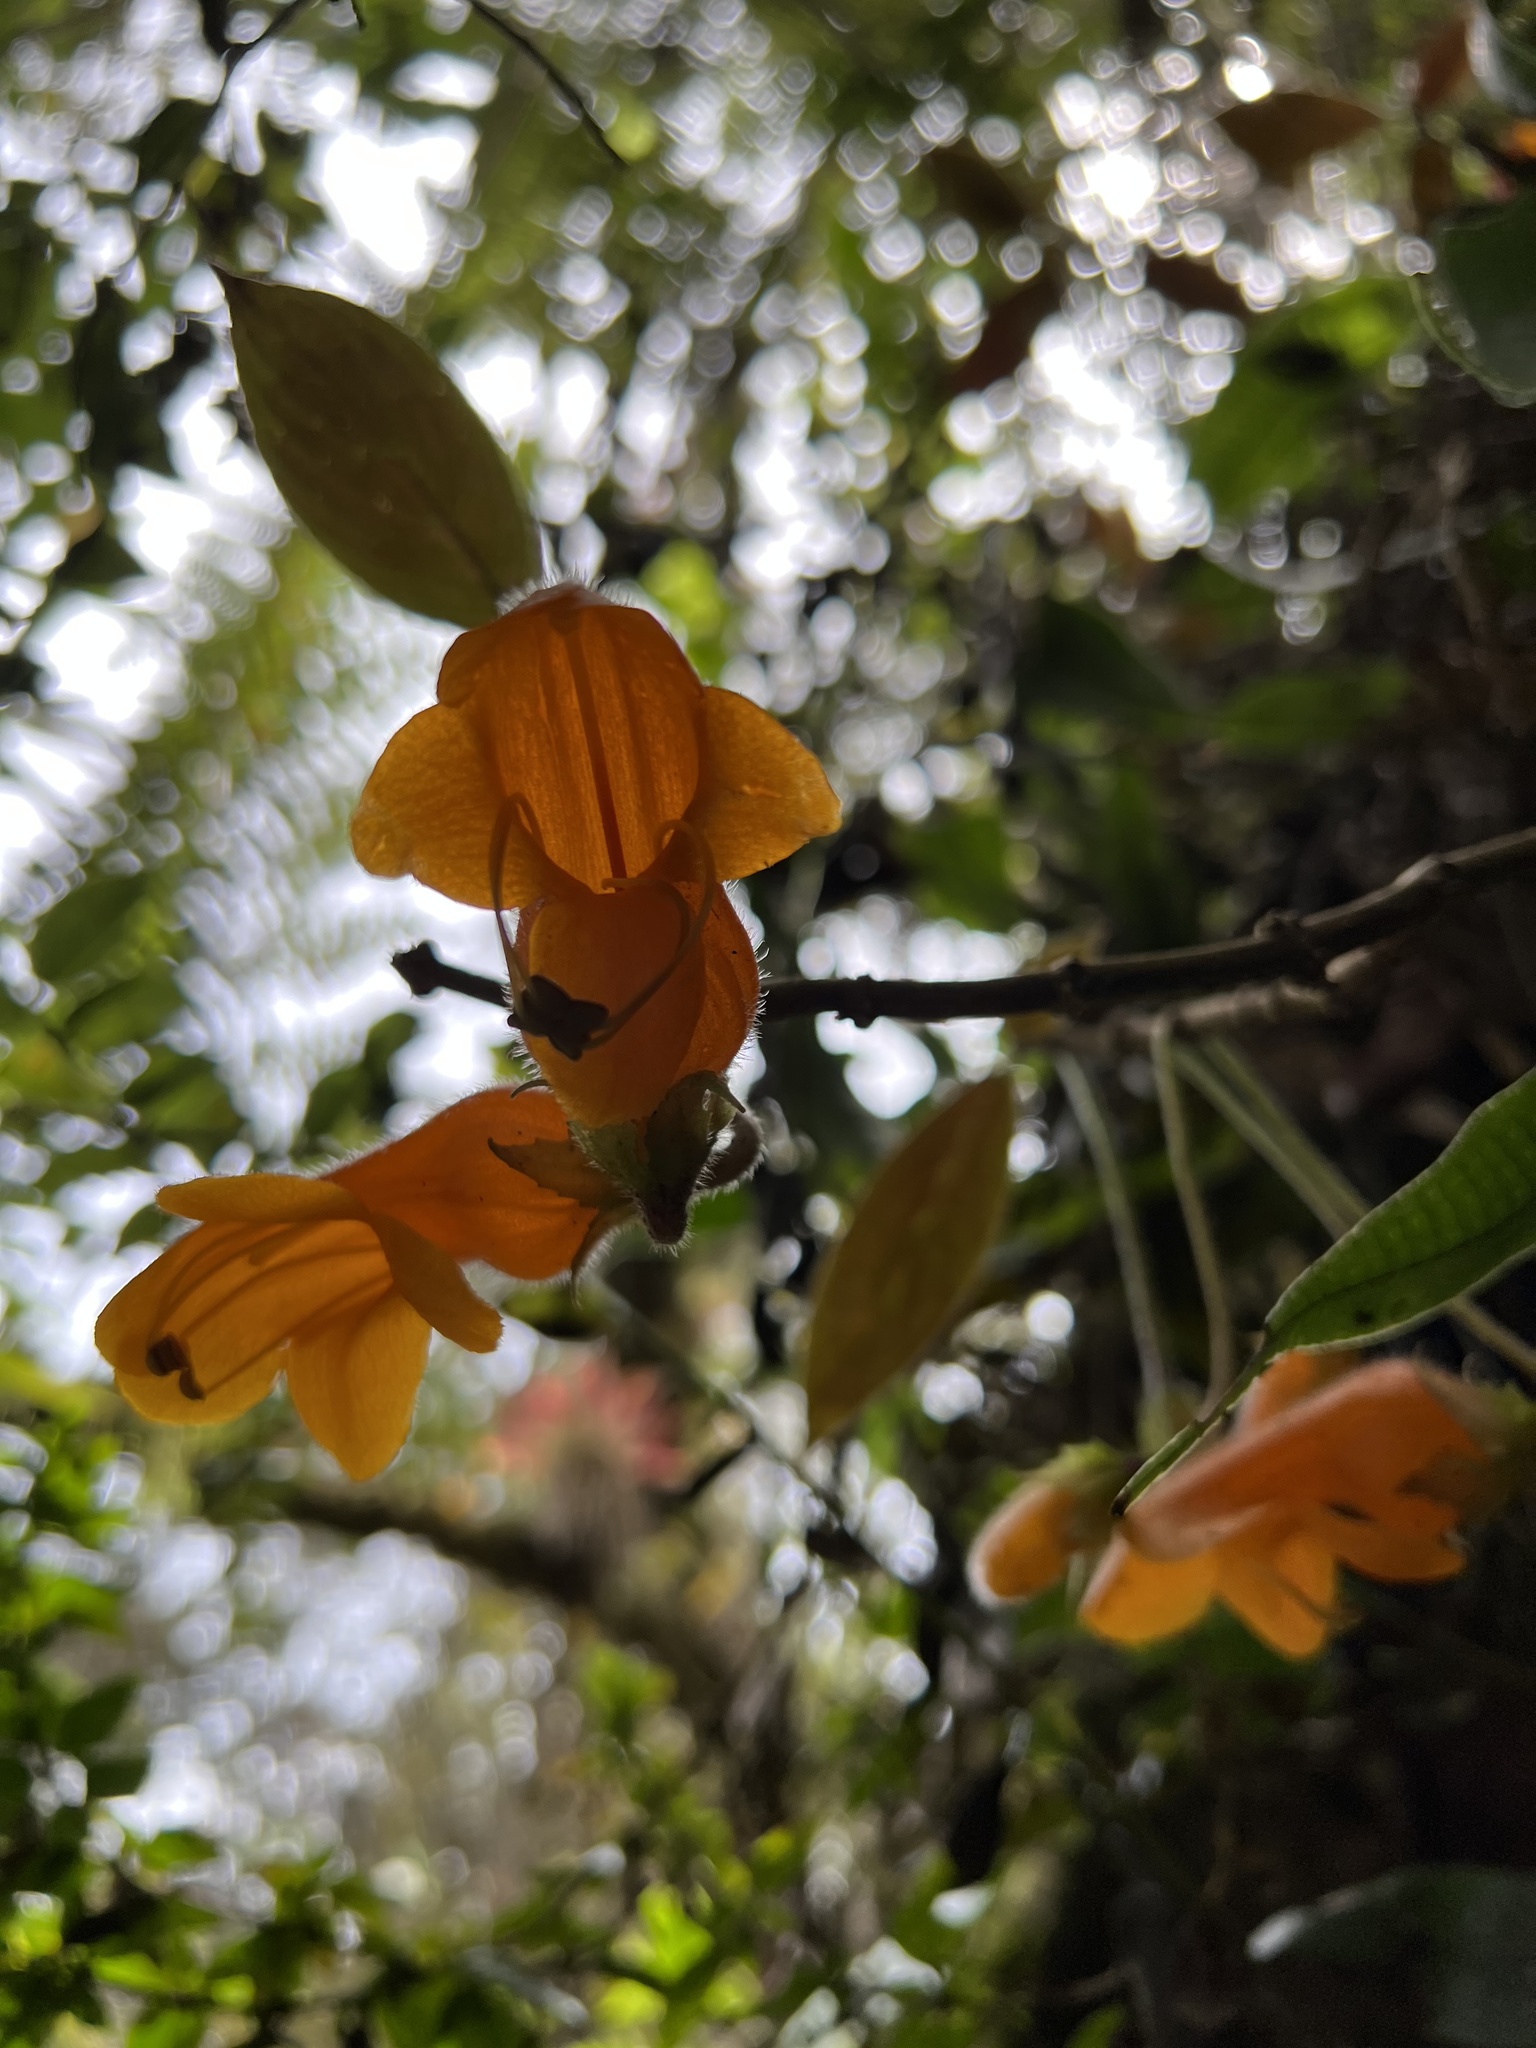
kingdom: Plantae
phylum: Tracheophyta
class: Magnoliopsida
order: Lamiales
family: Gesneriaceae
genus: Columnea
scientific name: Columnea strigosa
